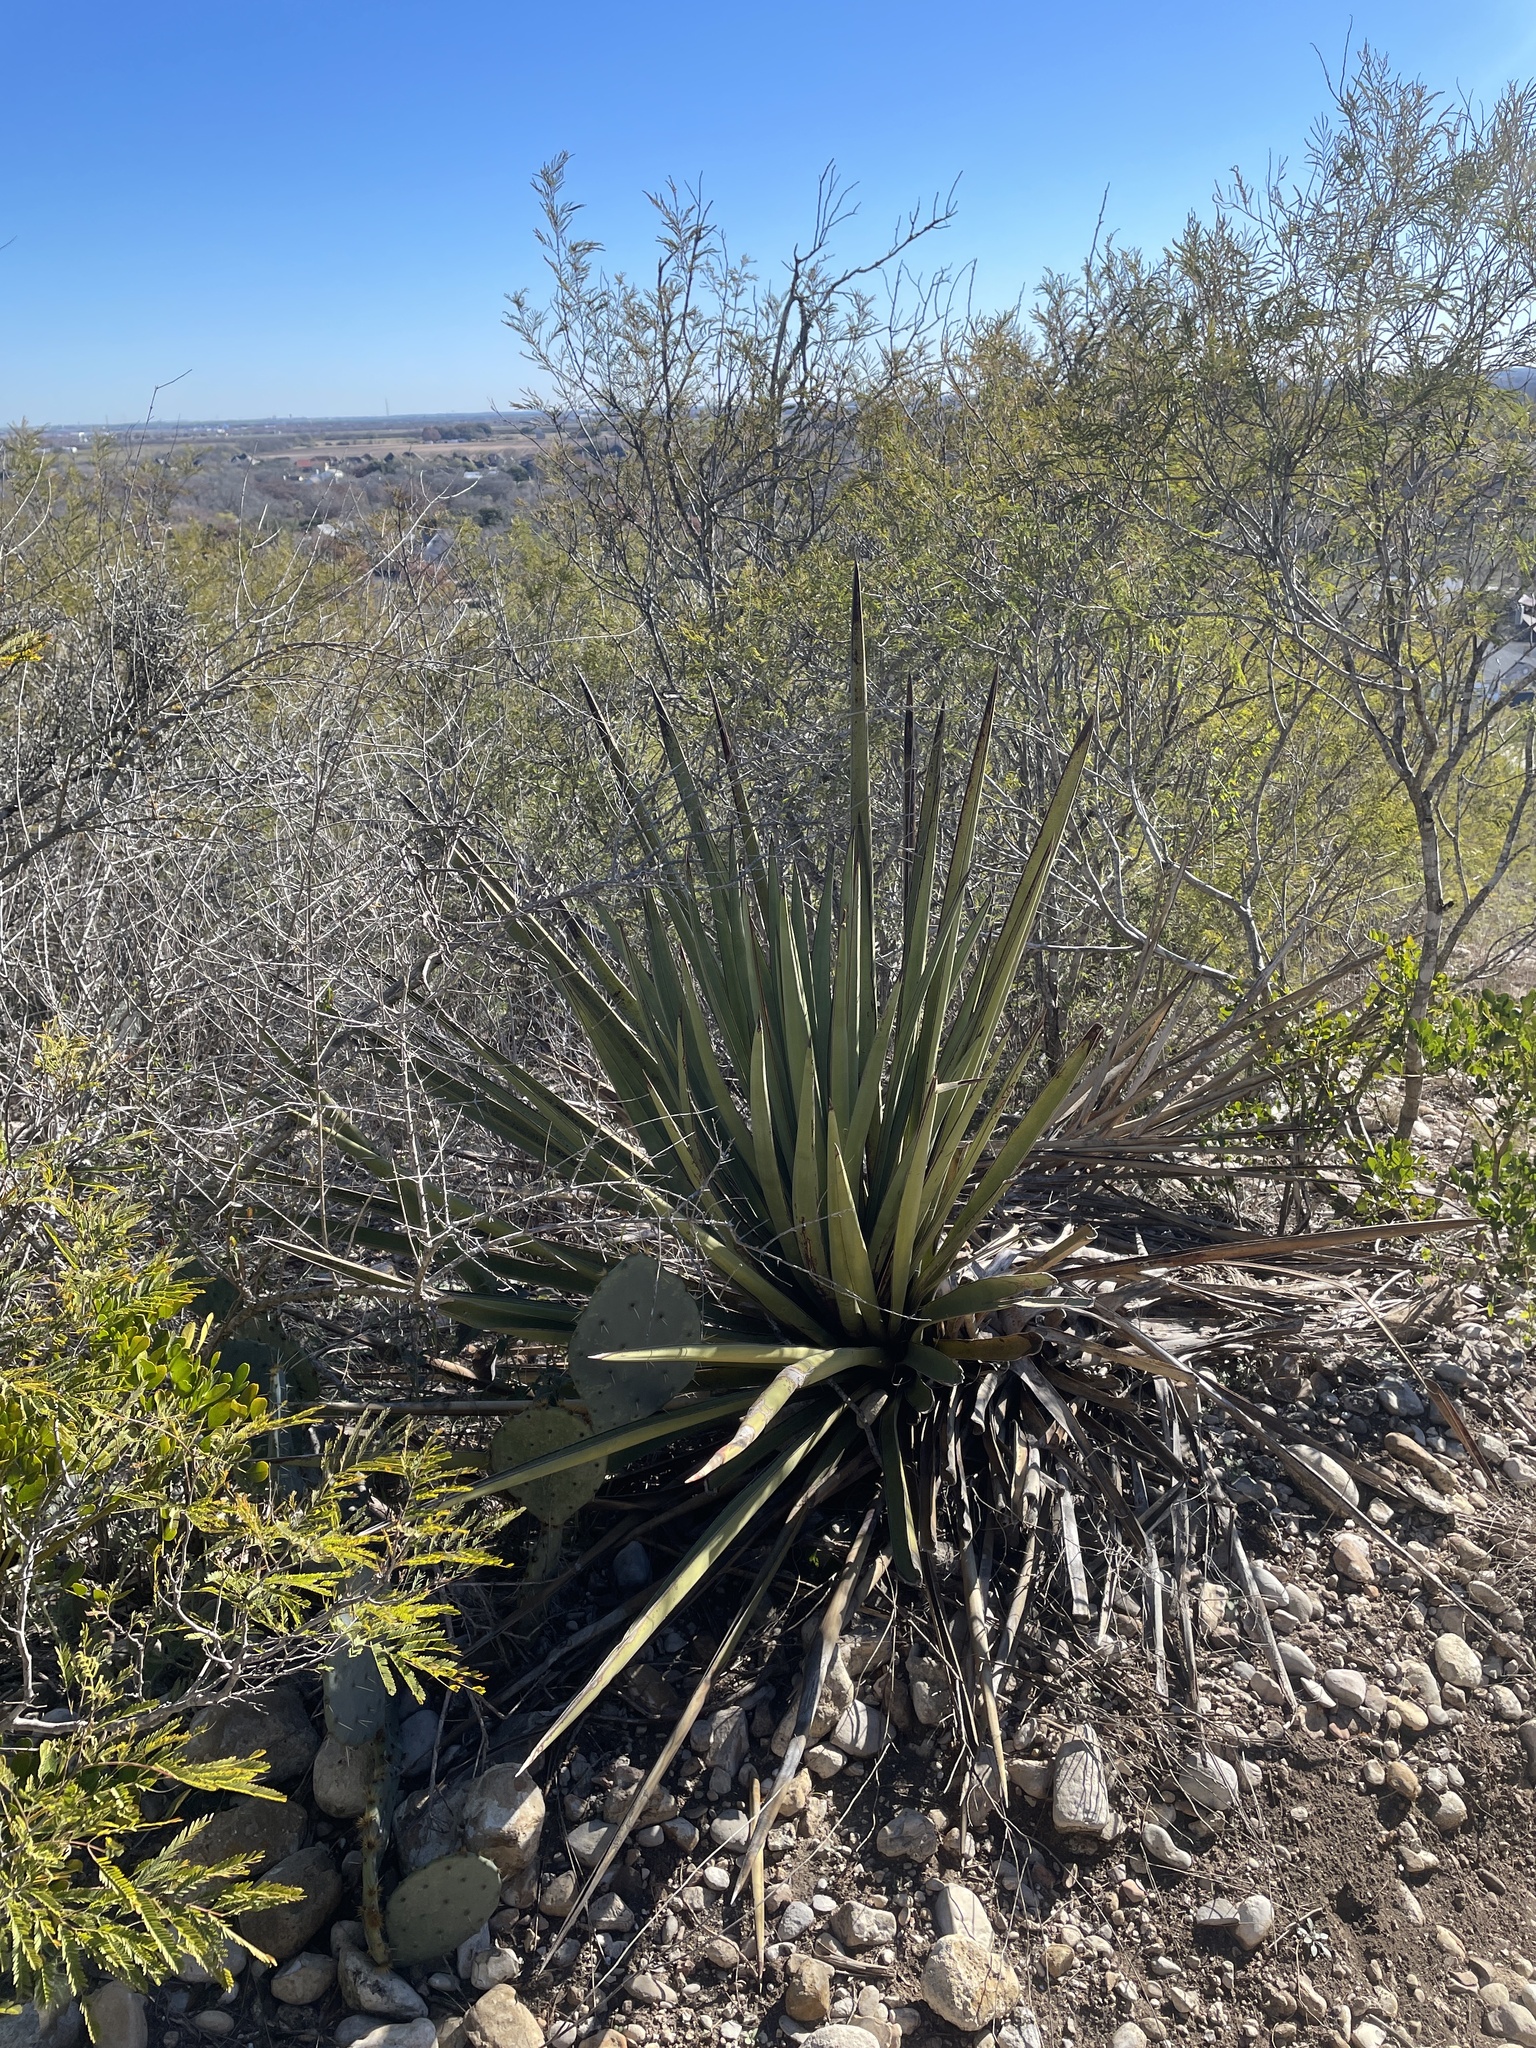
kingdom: Plantae
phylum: Tracheophyta
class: Liliopsida
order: Asparagales
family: Asparagaceae
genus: Yucca
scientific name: Yucca treculiana
